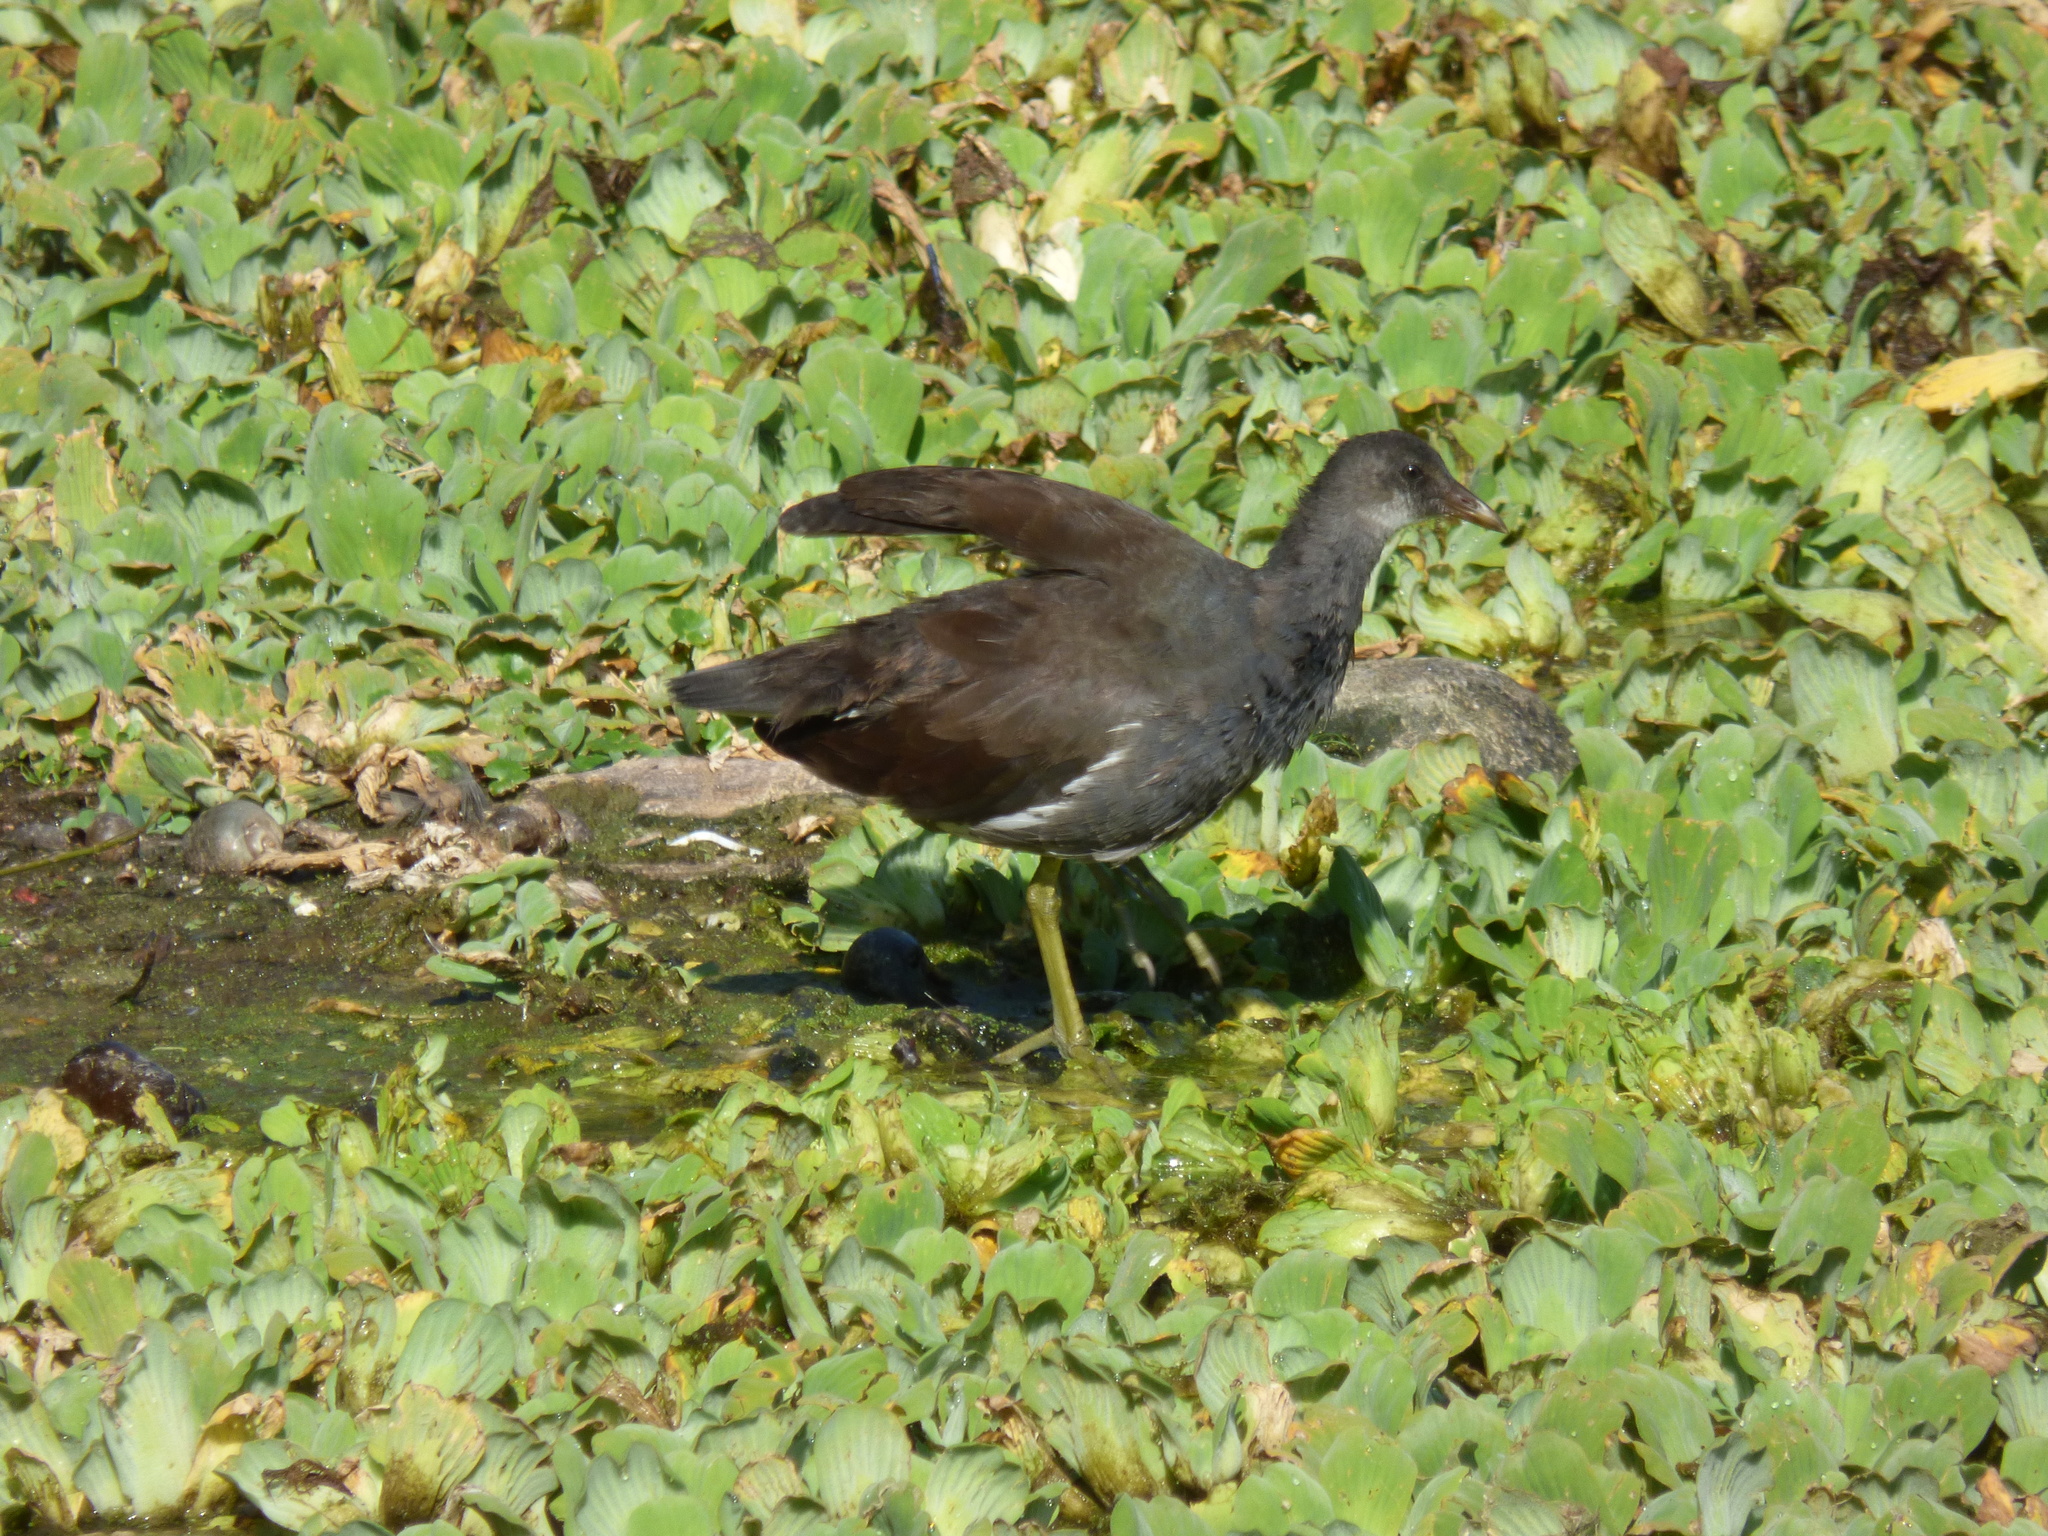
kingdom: Animalia
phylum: Chordata
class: Aves
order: Gruiformes
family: Rallidae
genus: Gallinula
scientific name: Gallinula chloropus
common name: Common moorhen
